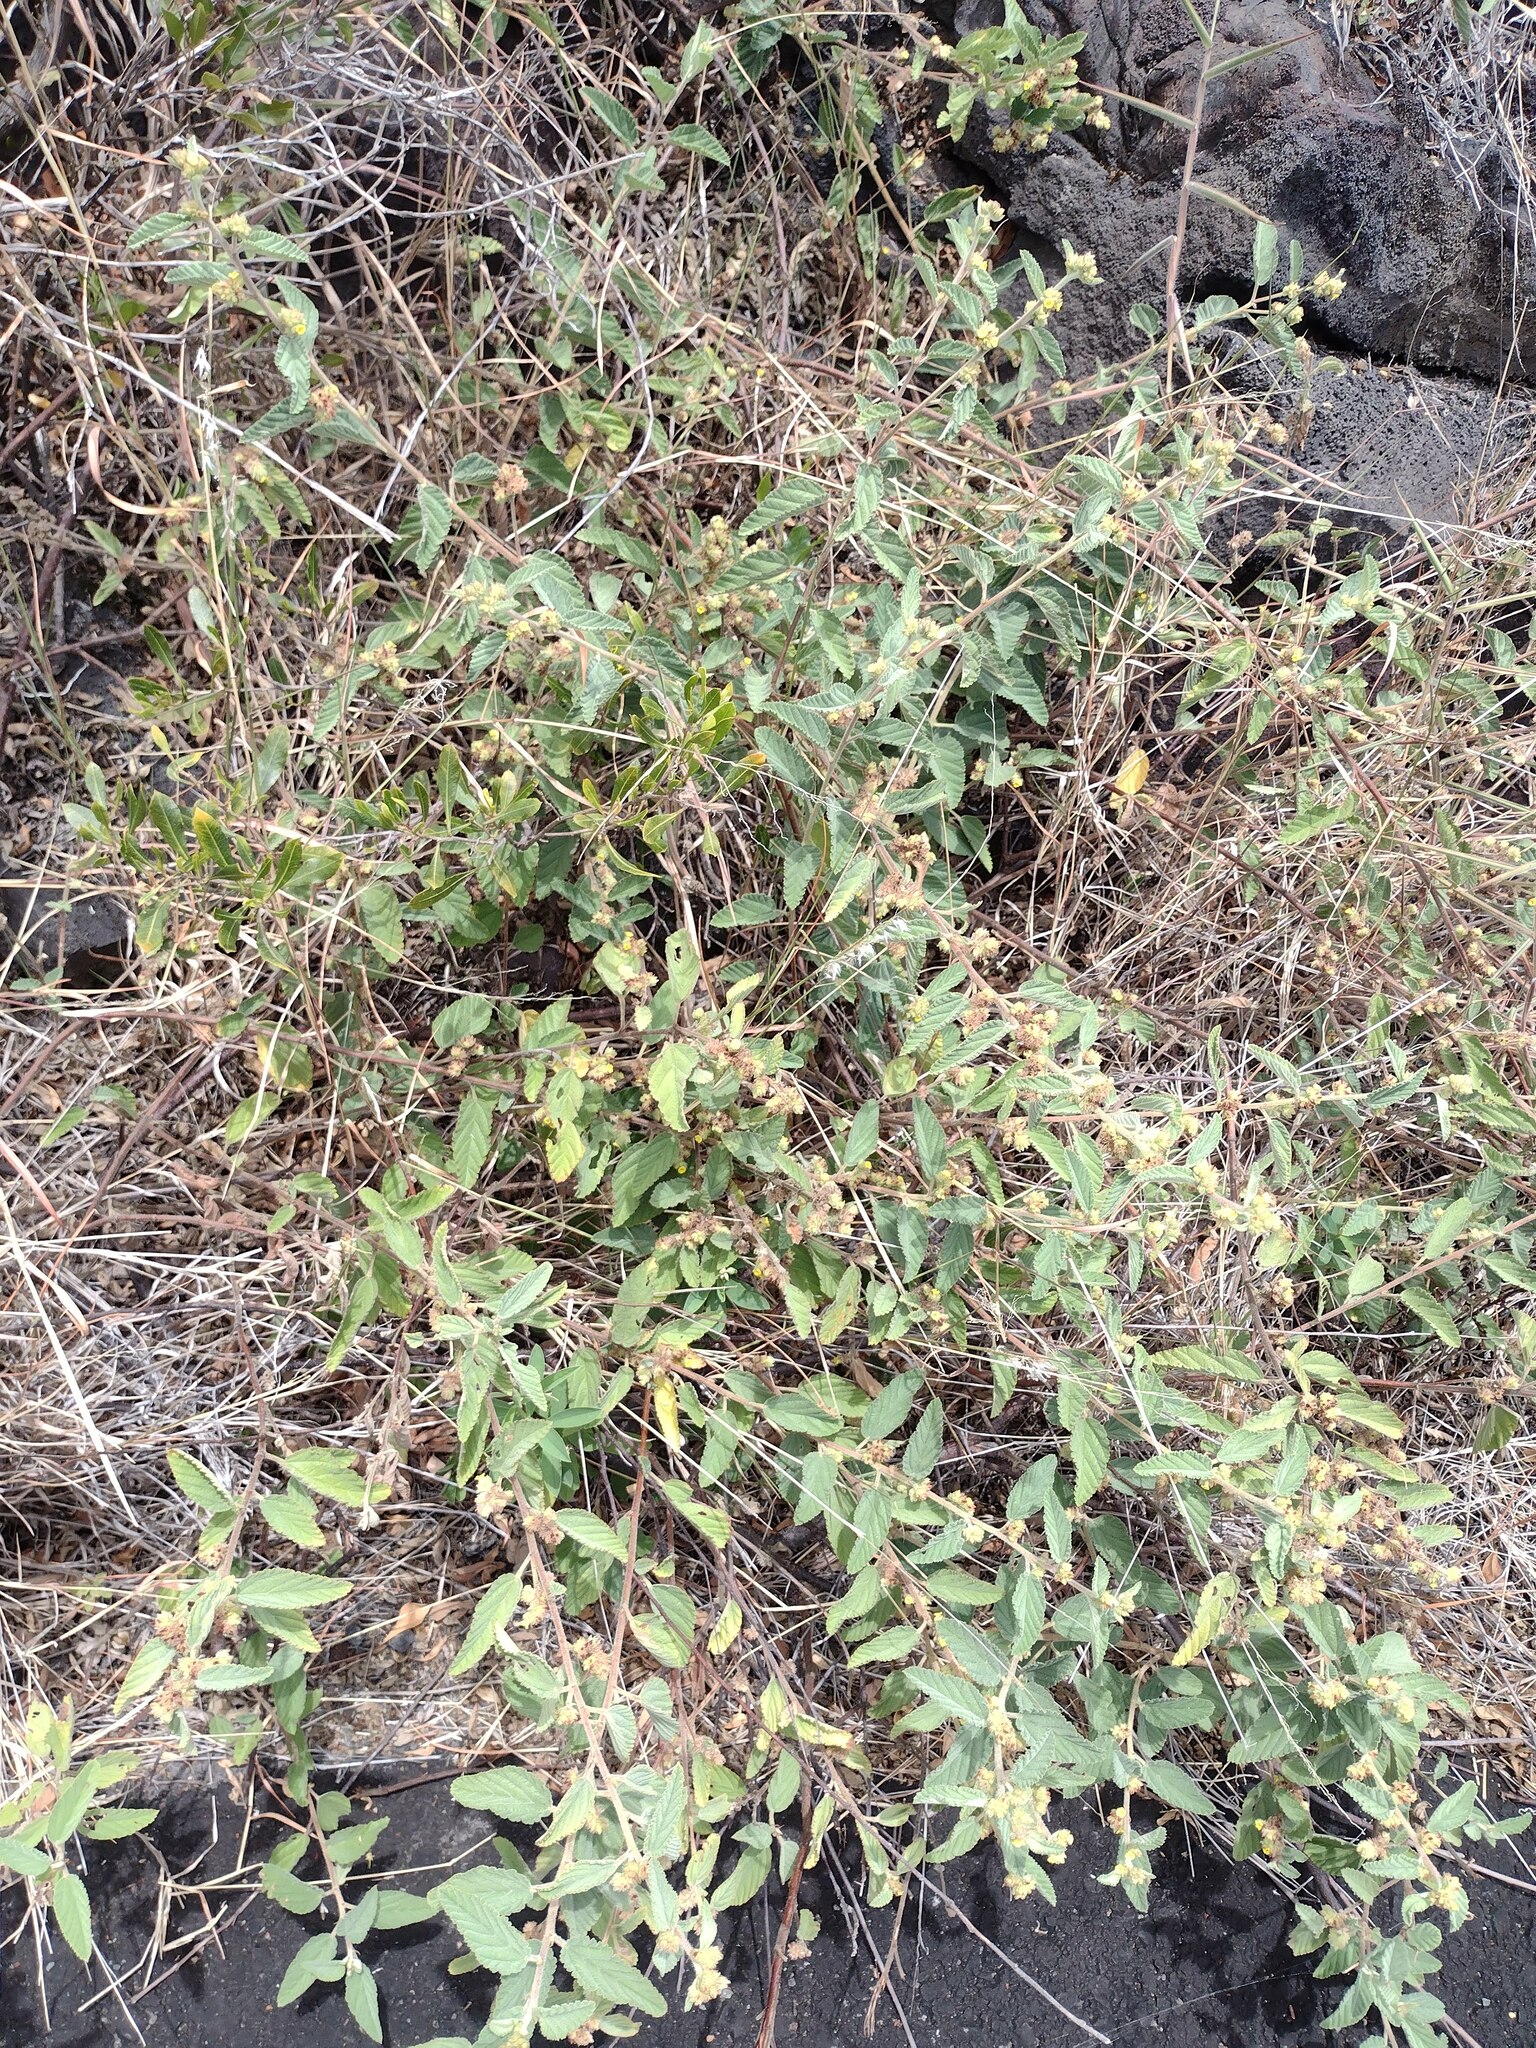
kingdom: Plantae
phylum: Tracheophyta
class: Magnoliopsida
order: Malvales
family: Malvaceae
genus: Waltheria
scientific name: Waltheria indica
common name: Leather-coat
